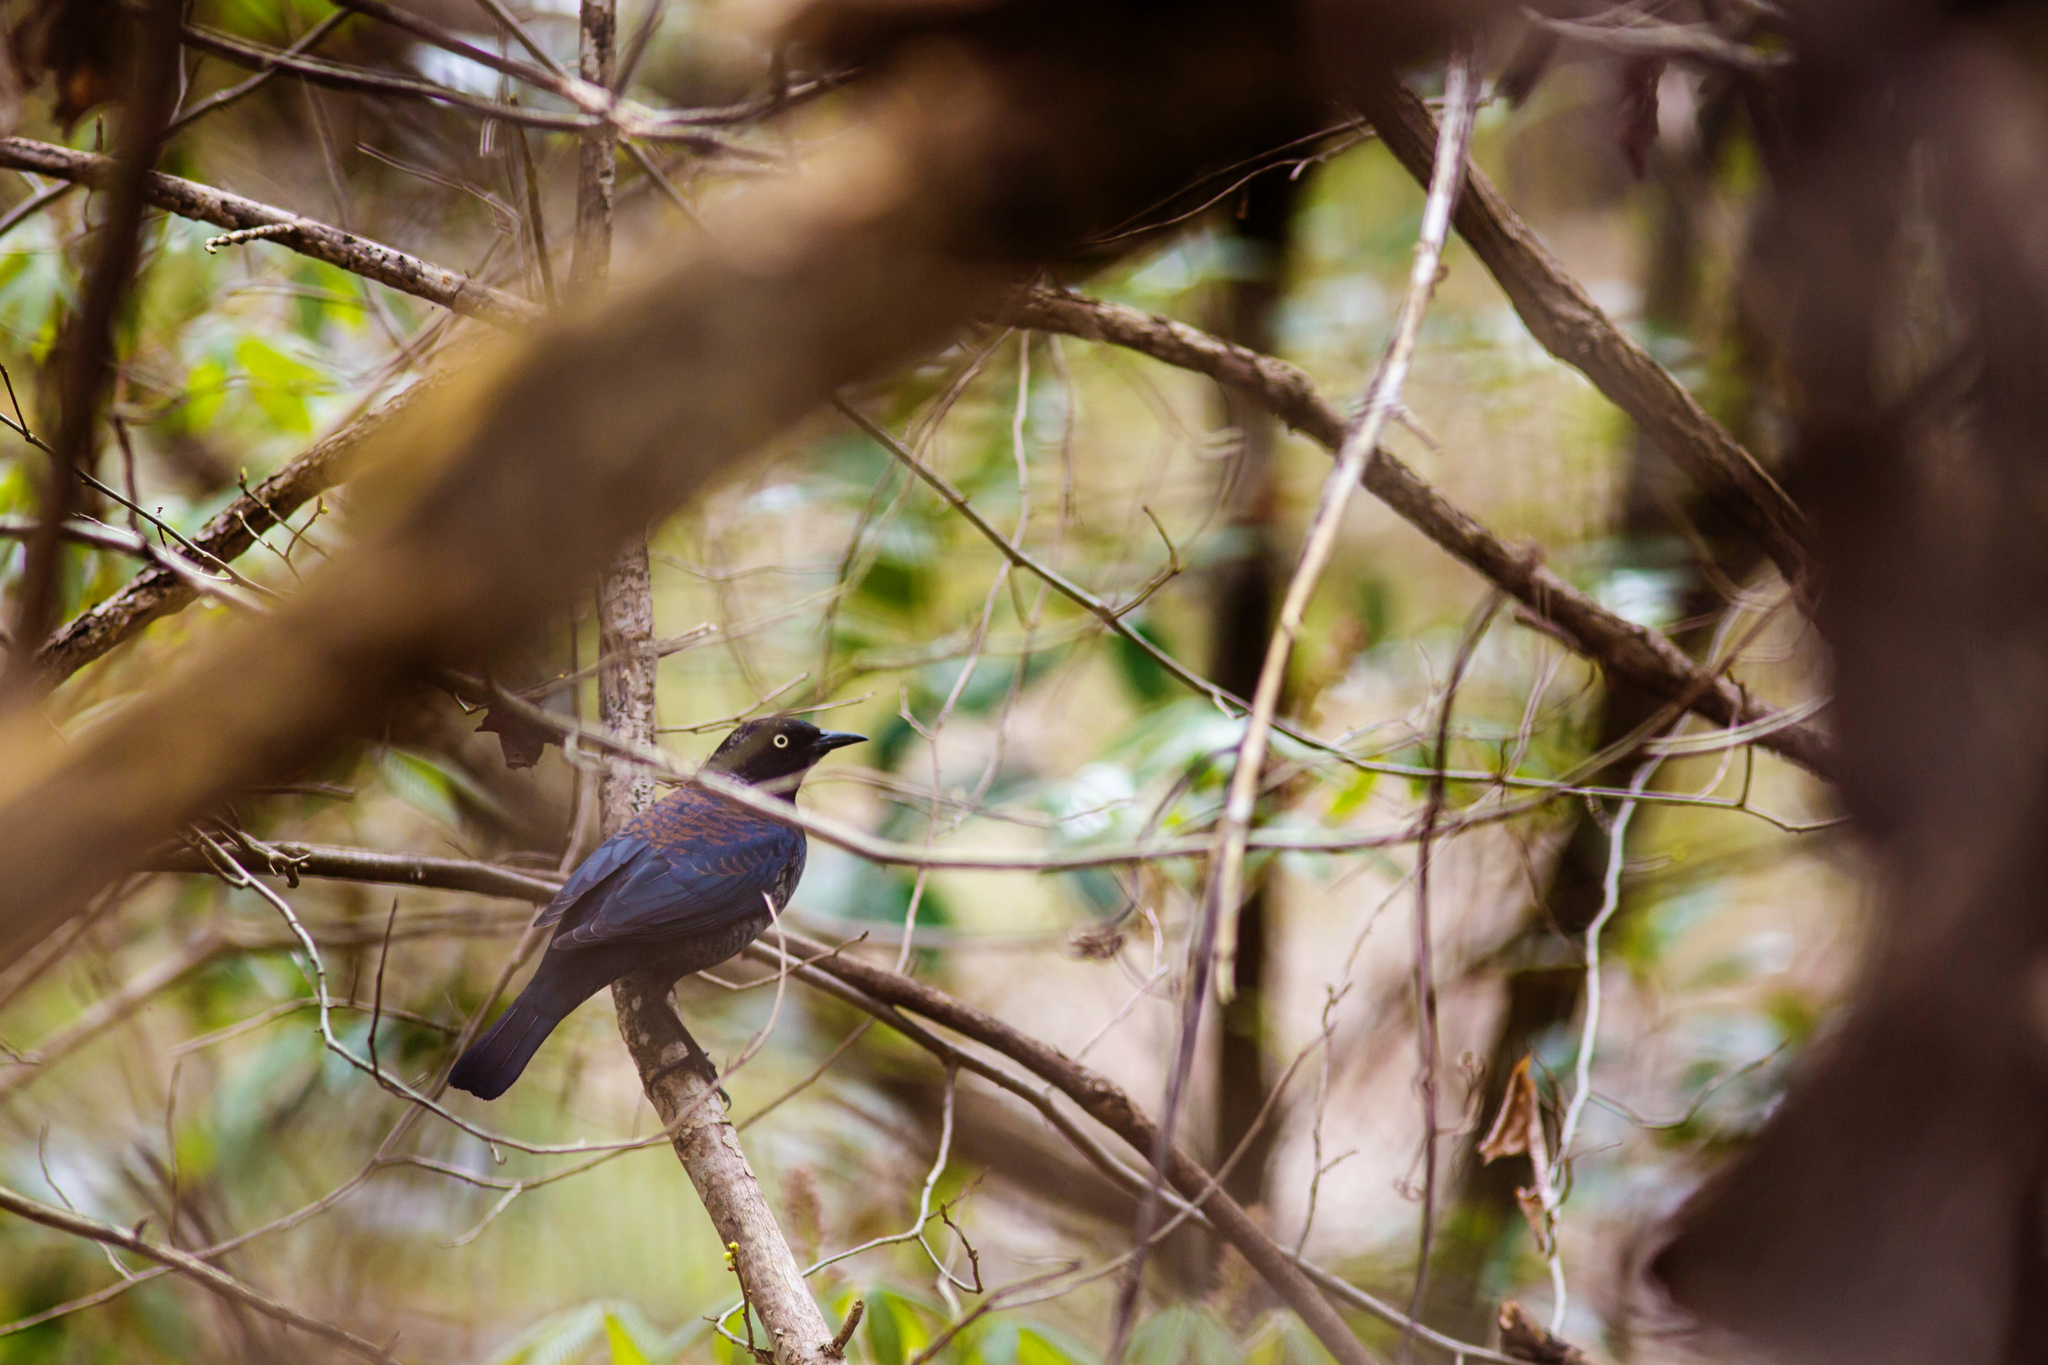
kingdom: Animalia
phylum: Chordata
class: Aves
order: Passeriformes
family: Icteridae
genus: Euphagus
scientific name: Euphagus carolinus
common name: Rusty blackbird
